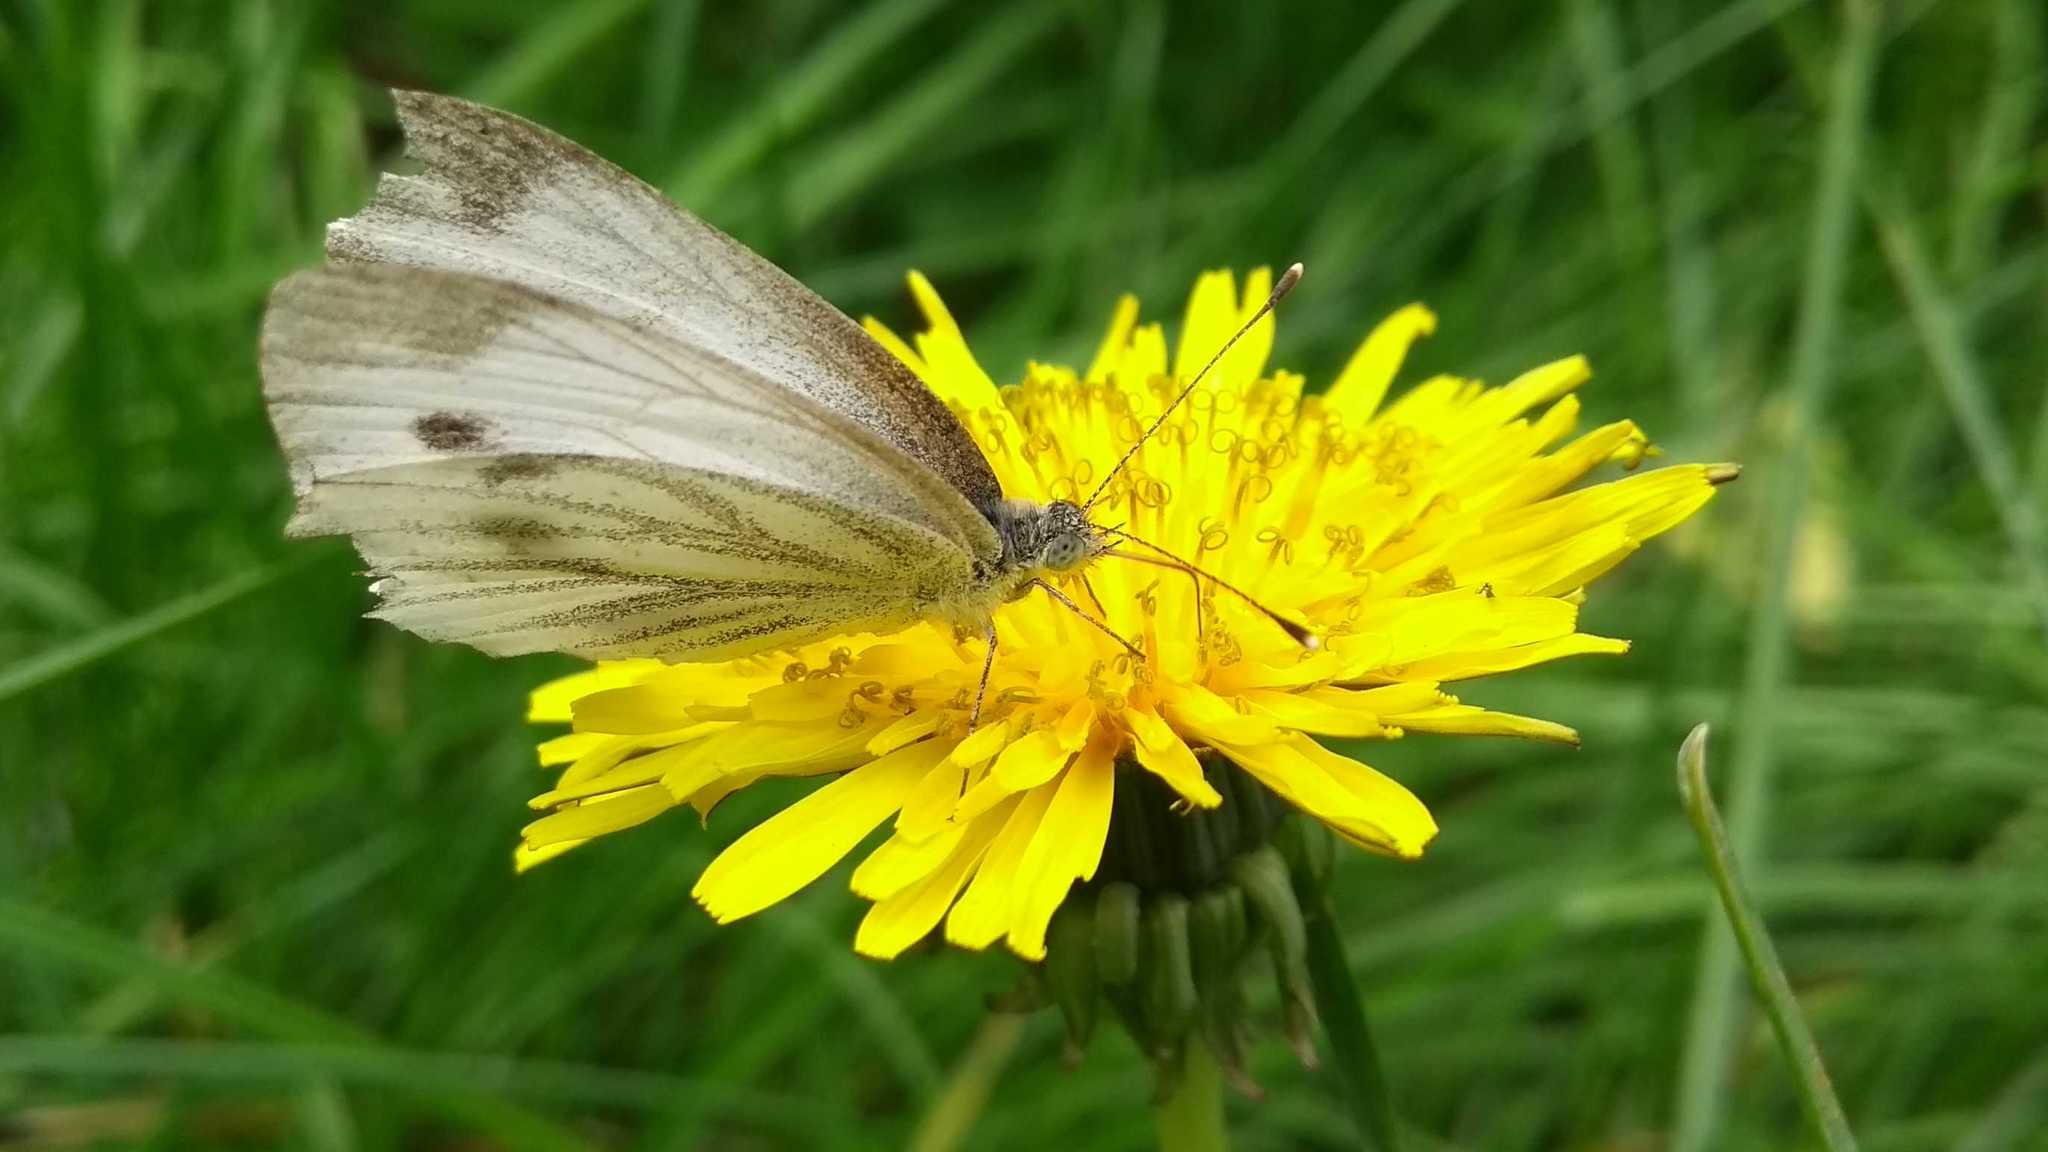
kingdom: Animalia
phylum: Arthropoda
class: Insecta
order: Lepidoptera
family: Pieridae
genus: Pieris
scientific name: Pieris napi
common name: Green-veined white
